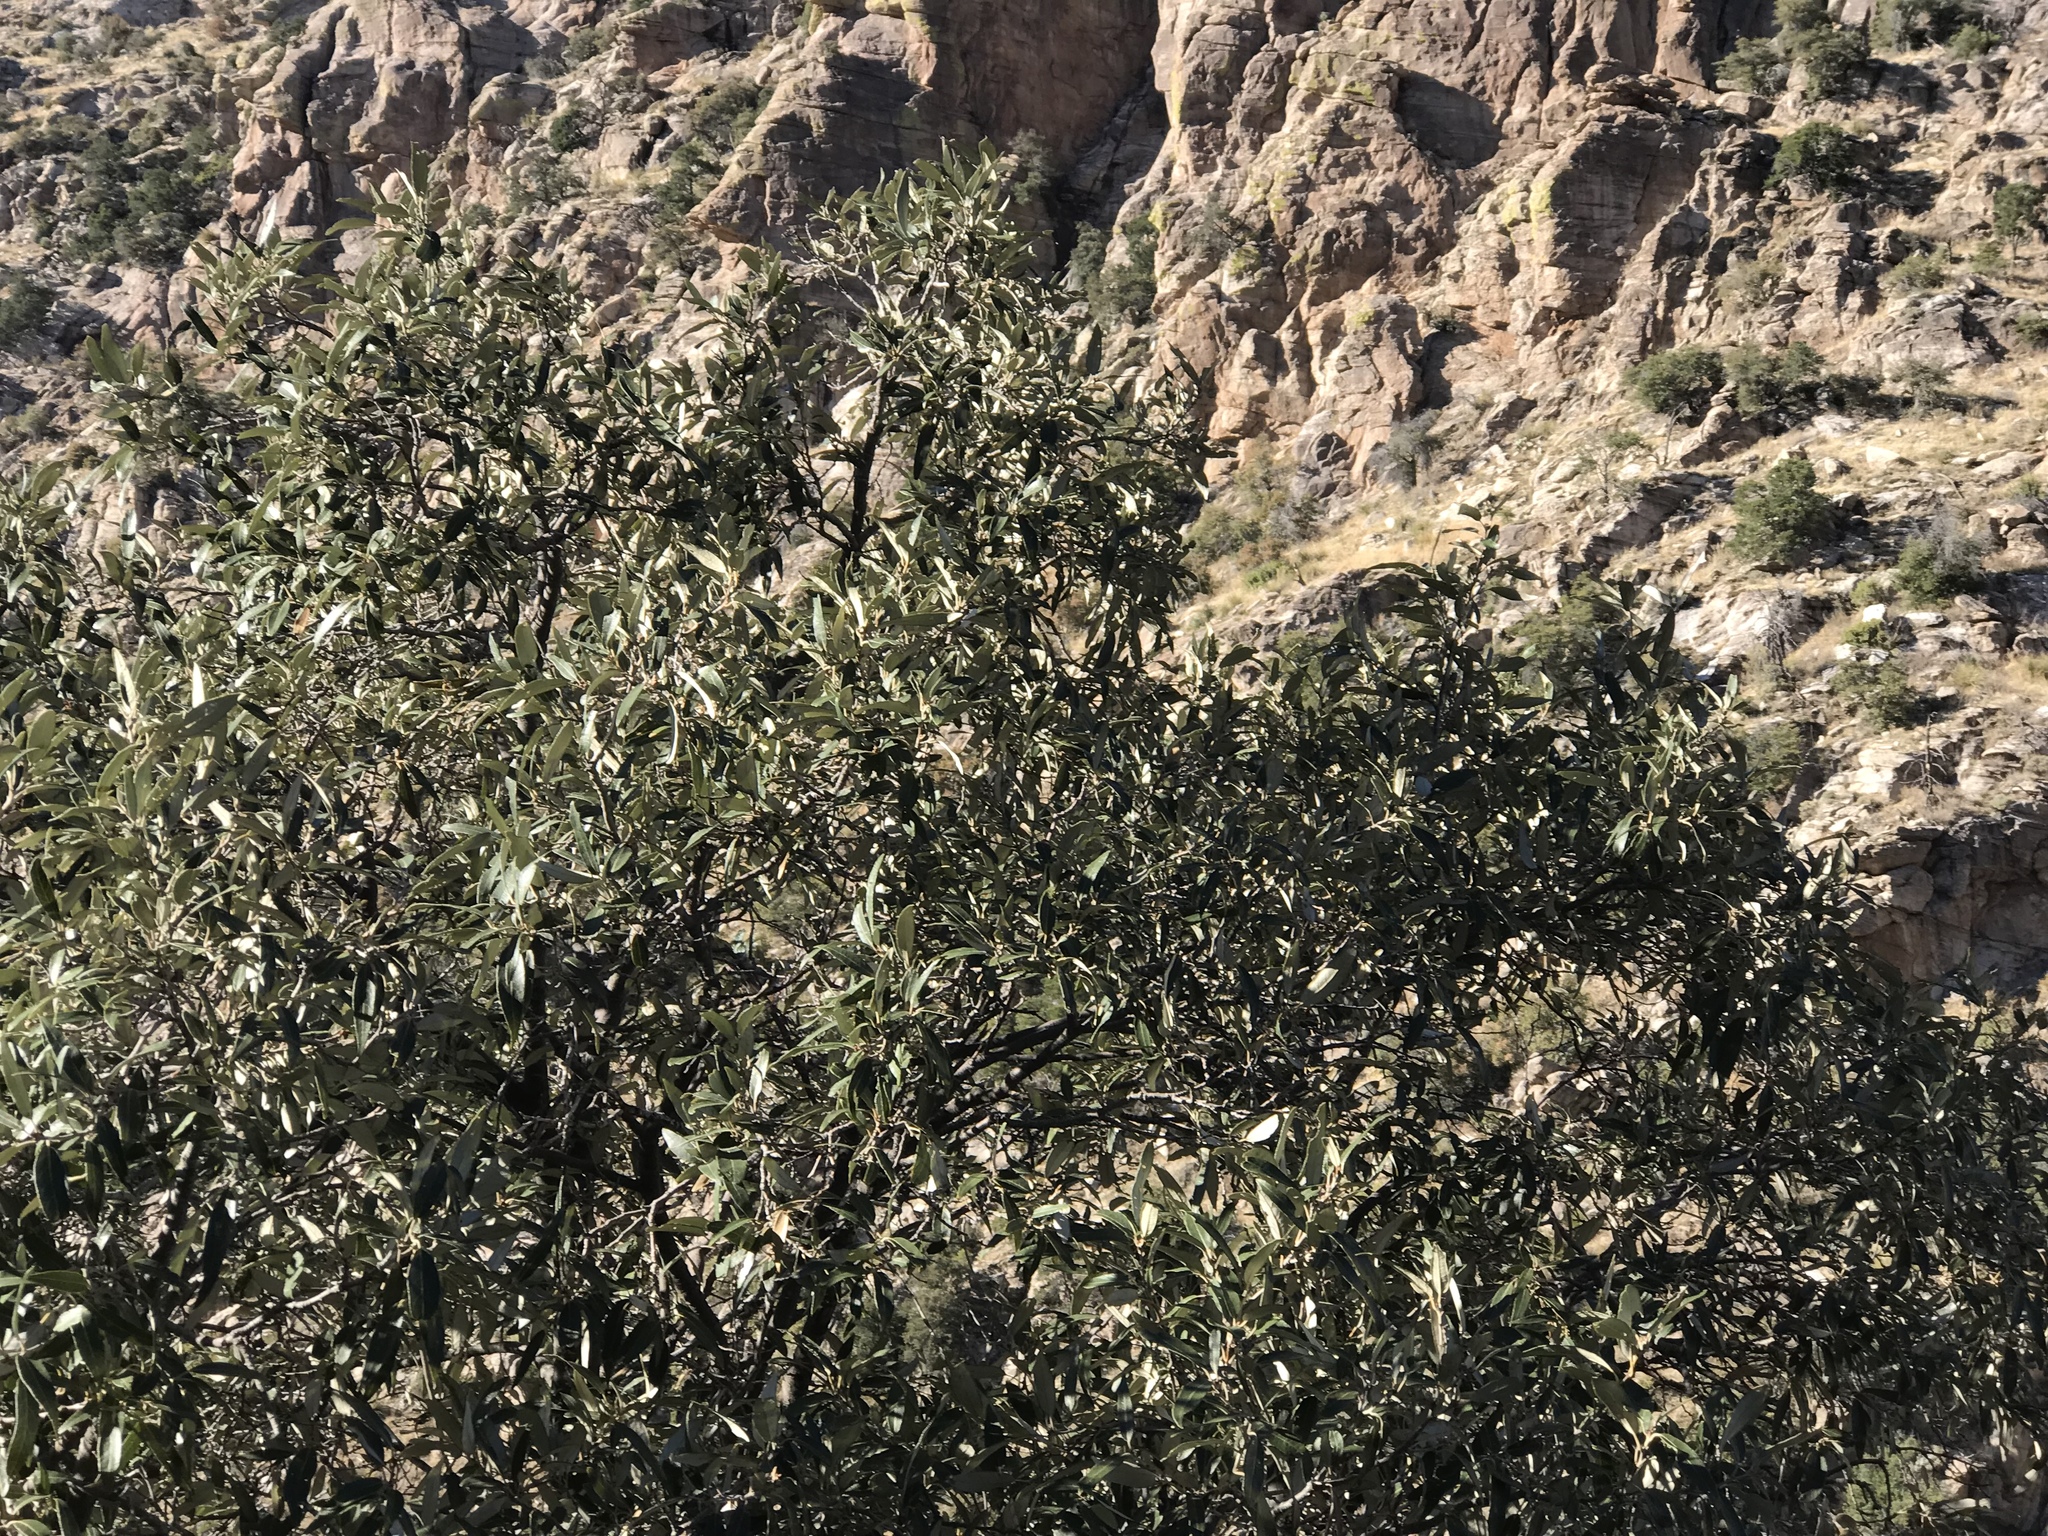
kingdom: Plantae
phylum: Tracheophyta
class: Magnoliopsida
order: Fagales
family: Fagaceae
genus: Quercus
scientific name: Quercus hypoleucoides
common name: Silverleaf oak
